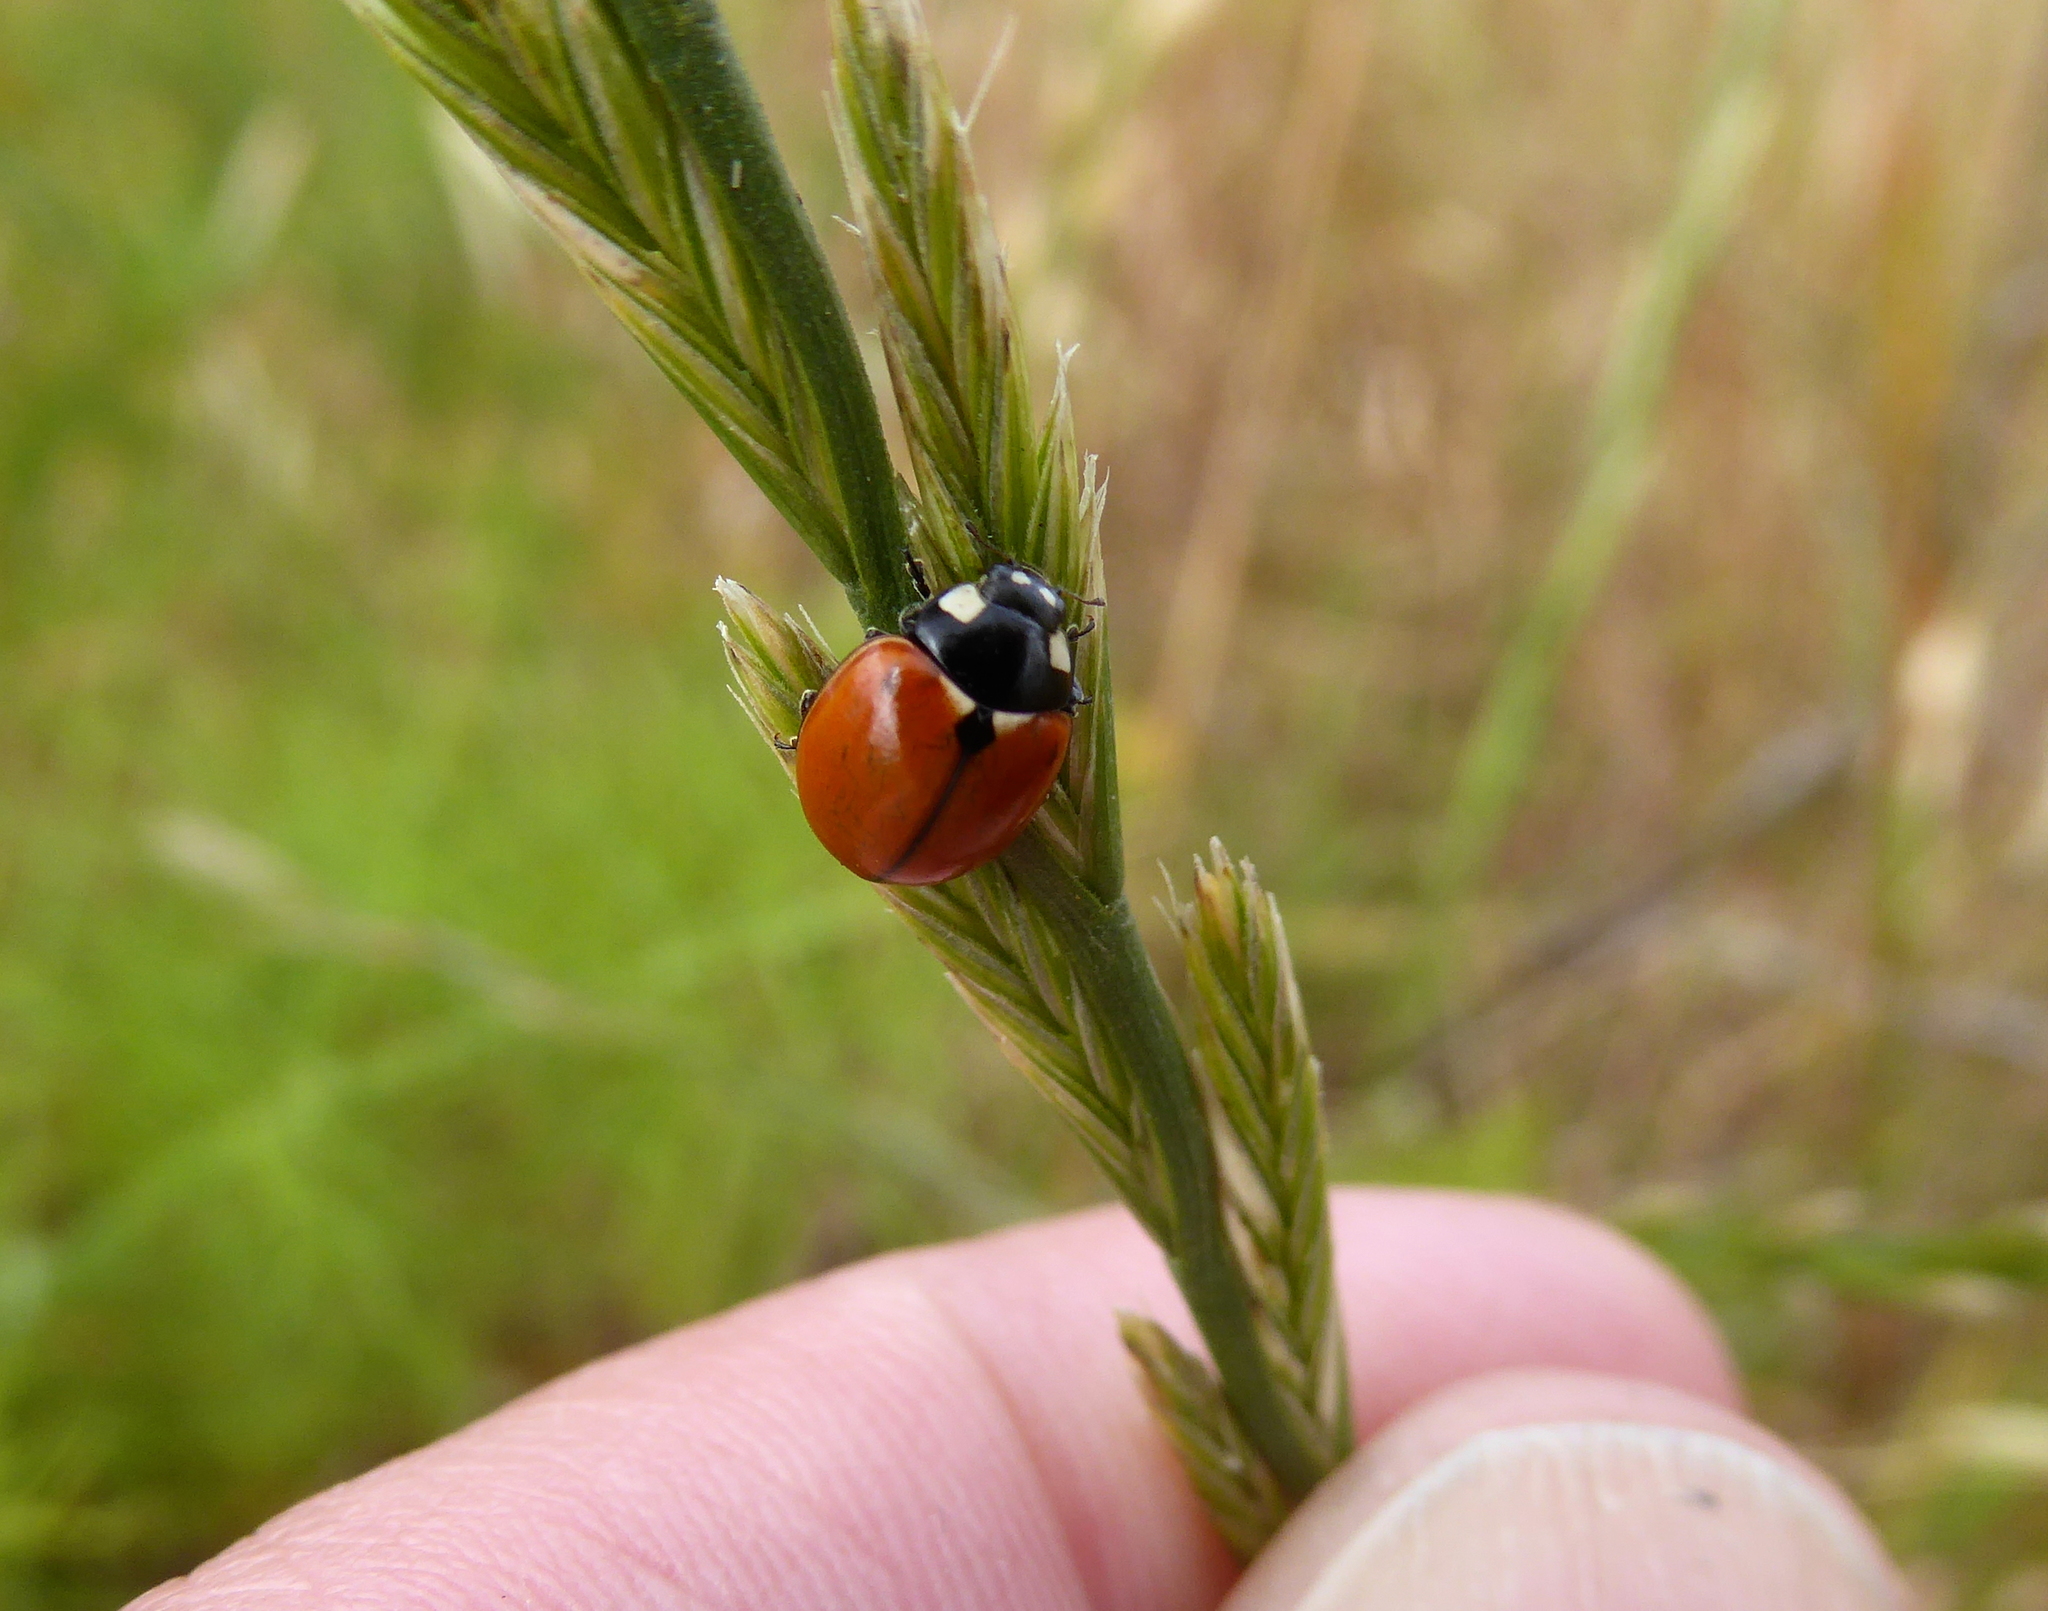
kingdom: Animalia
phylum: Arthropoda
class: Insecta
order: Coleoptera
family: Coccinellidae
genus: Coccinella
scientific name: Coccinella californica
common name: Lady beetle
